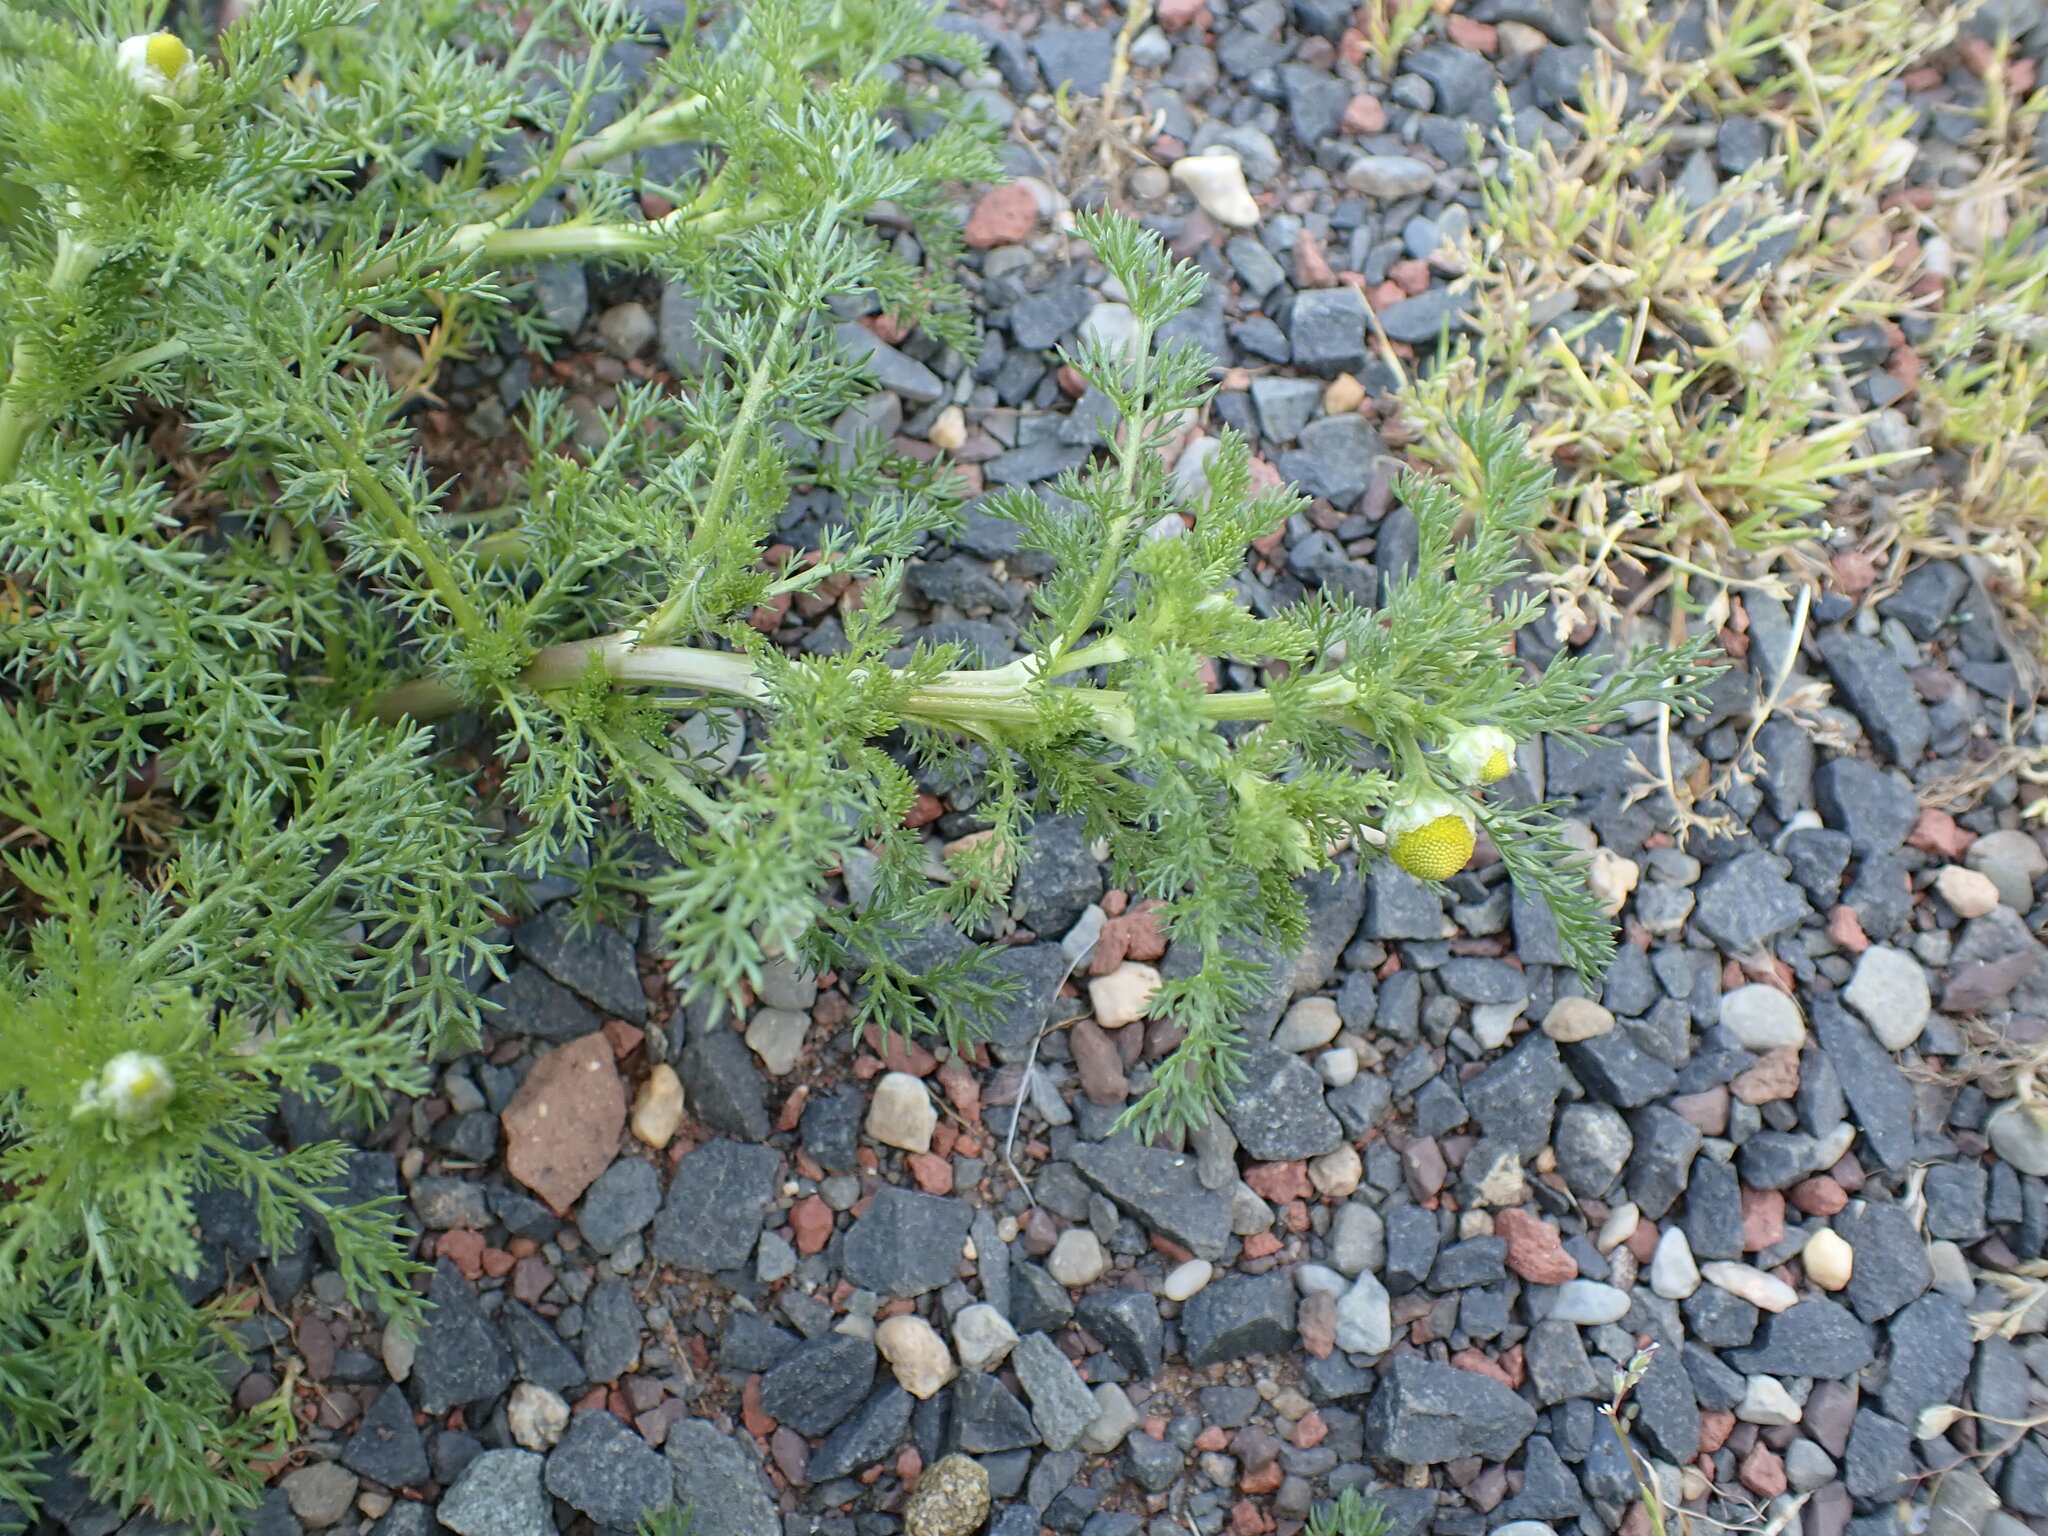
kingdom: Plantae
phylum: Tracheophyta
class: Magnoliopsida
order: Asterales
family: Asteraceae
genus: Matricaria
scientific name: Matricaria discoidea
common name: Disc mayweed
